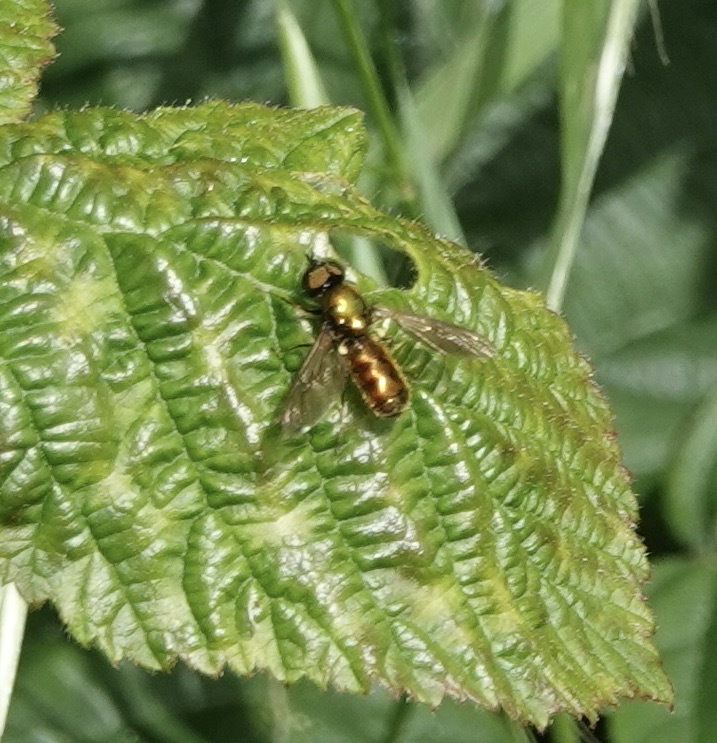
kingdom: Animalia
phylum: Arthropoda
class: Insecta
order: Diptera
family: Stratiomyidae
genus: Chloromyia
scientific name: Chloromyia formosa
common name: Soldier fly
